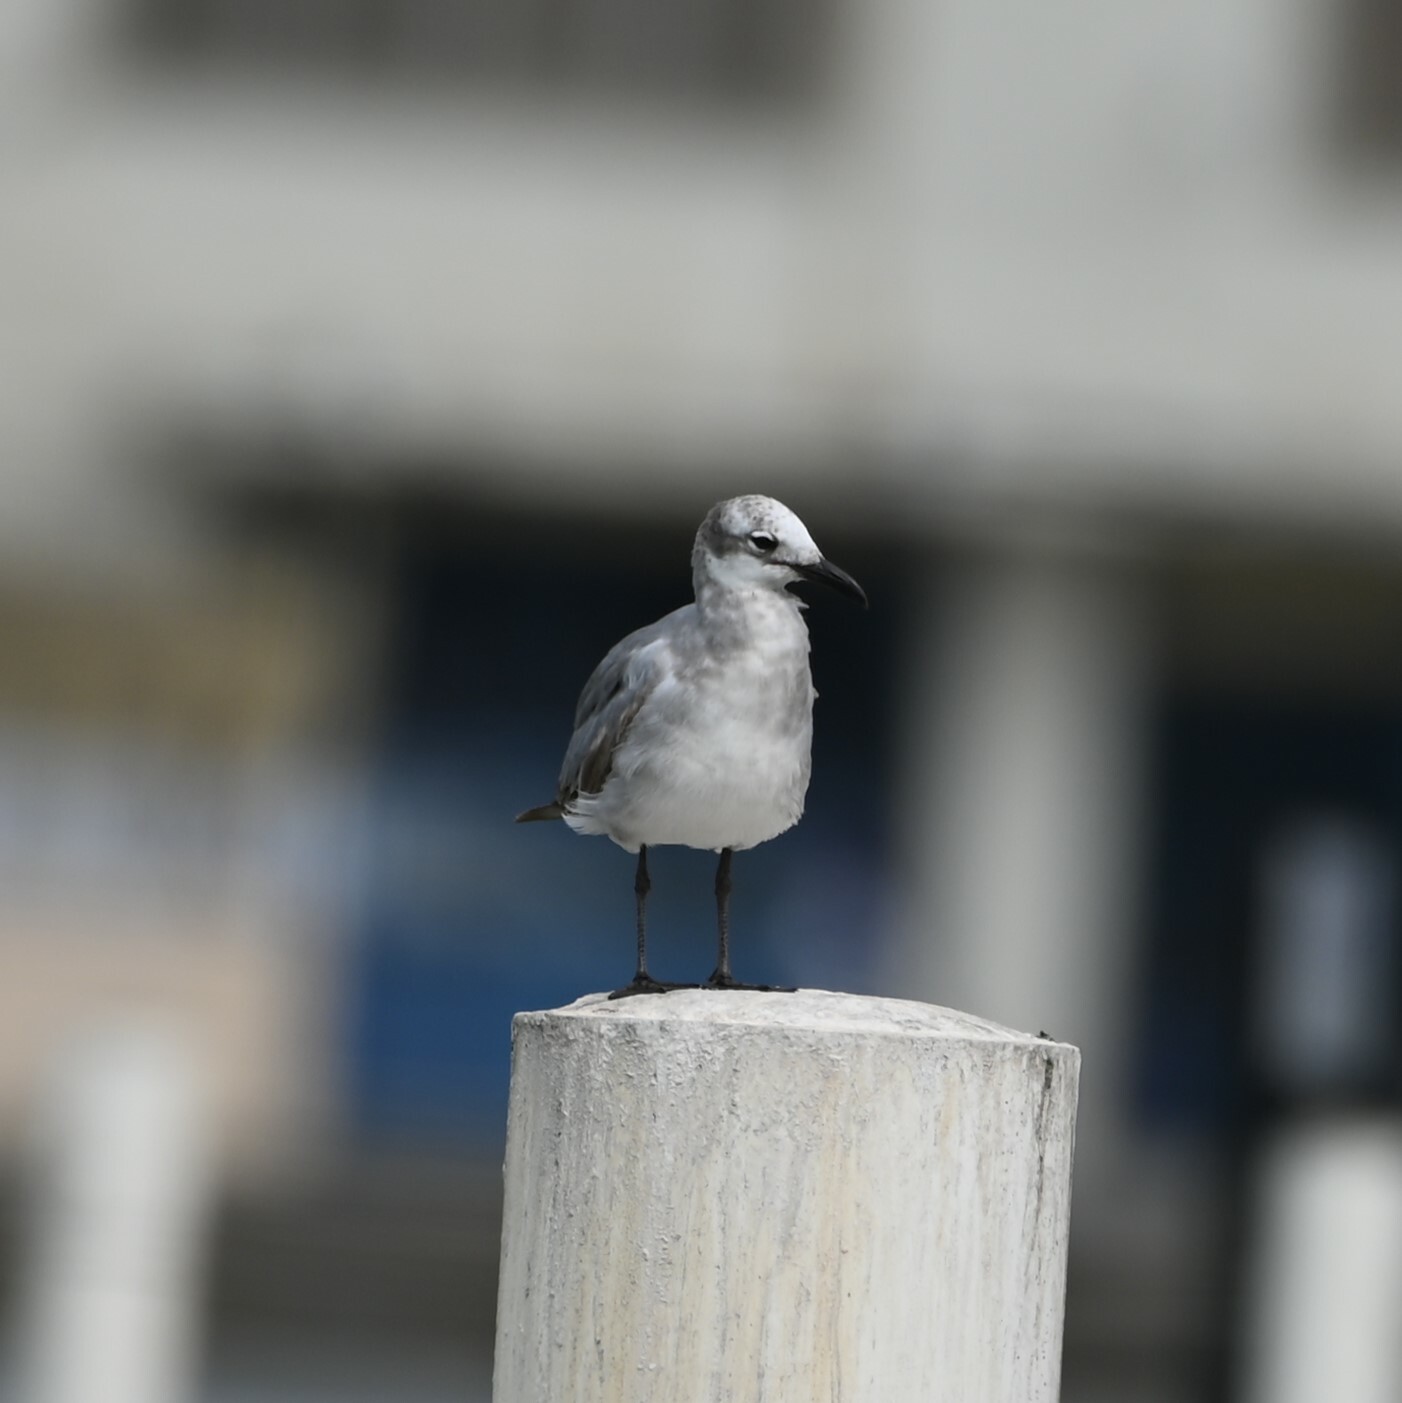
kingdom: Animalia
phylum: Chordata
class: Aves
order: Charadriiformes
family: Laridae
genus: Leucophaeus
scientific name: Leucophaeus atricilla
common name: Laughing gull
